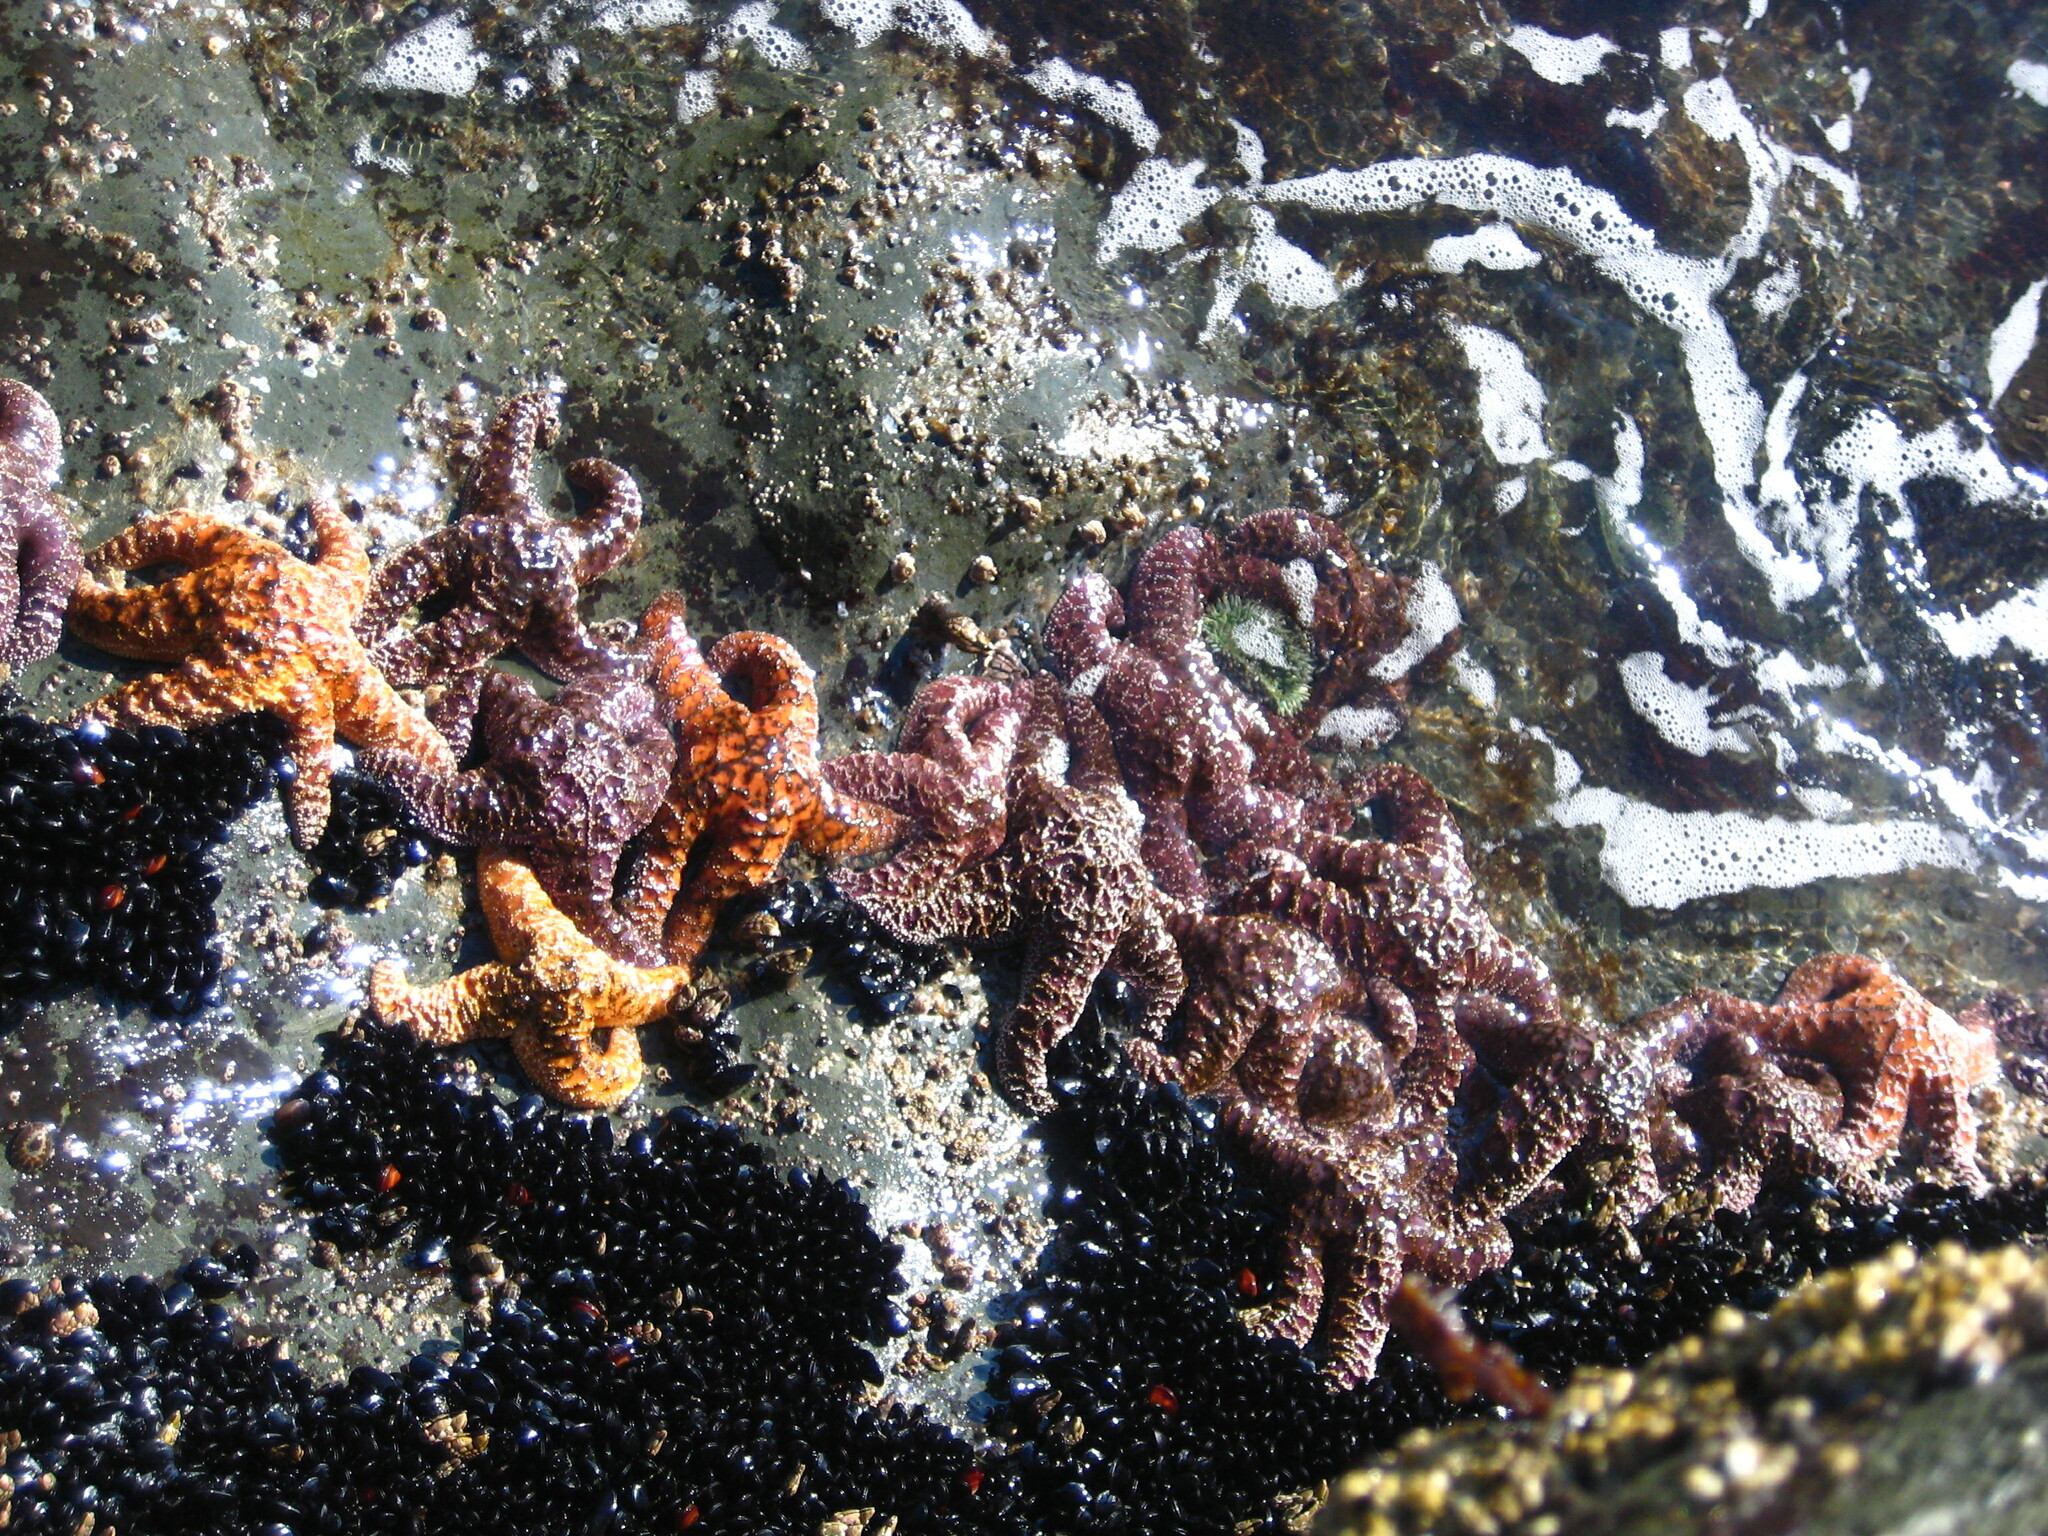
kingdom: Animalia
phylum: Echinodermata
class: Asteroidea
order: Forcipulatida
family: Asteriidae
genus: Pisaster
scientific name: Pisaster ochraceus
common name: Ochre stars
